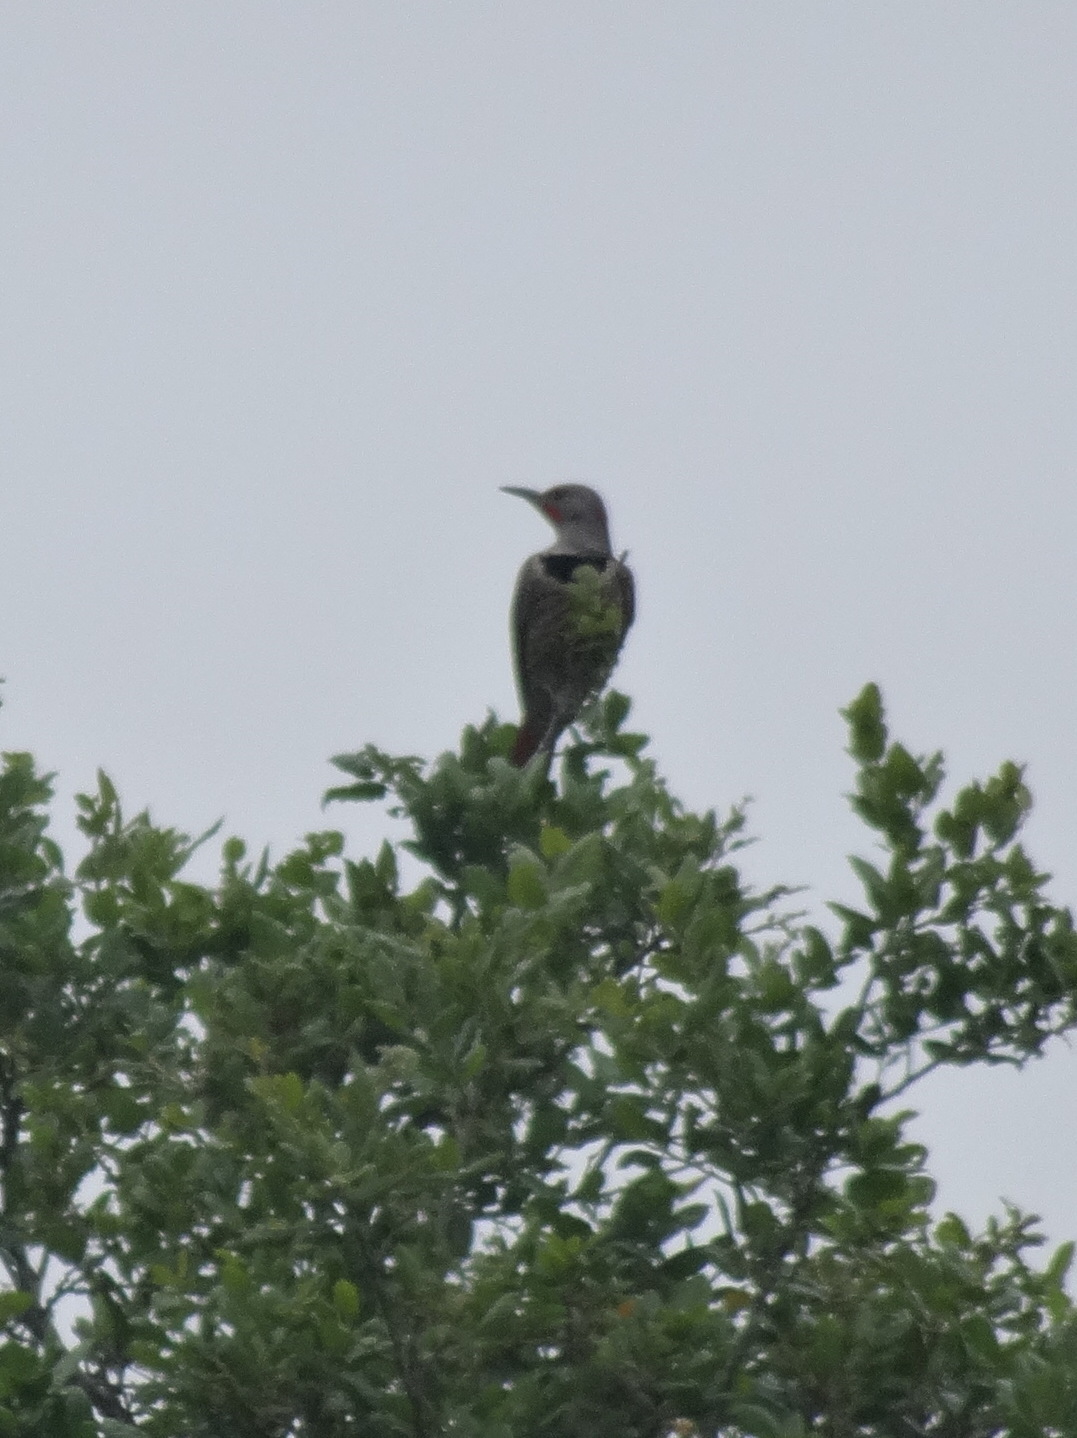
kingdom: Animalia
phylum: Chordata
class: Aves
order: Piciformes
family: Picidae
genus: Colaptes
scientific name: Colaptes auratus
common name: Northern flicker
